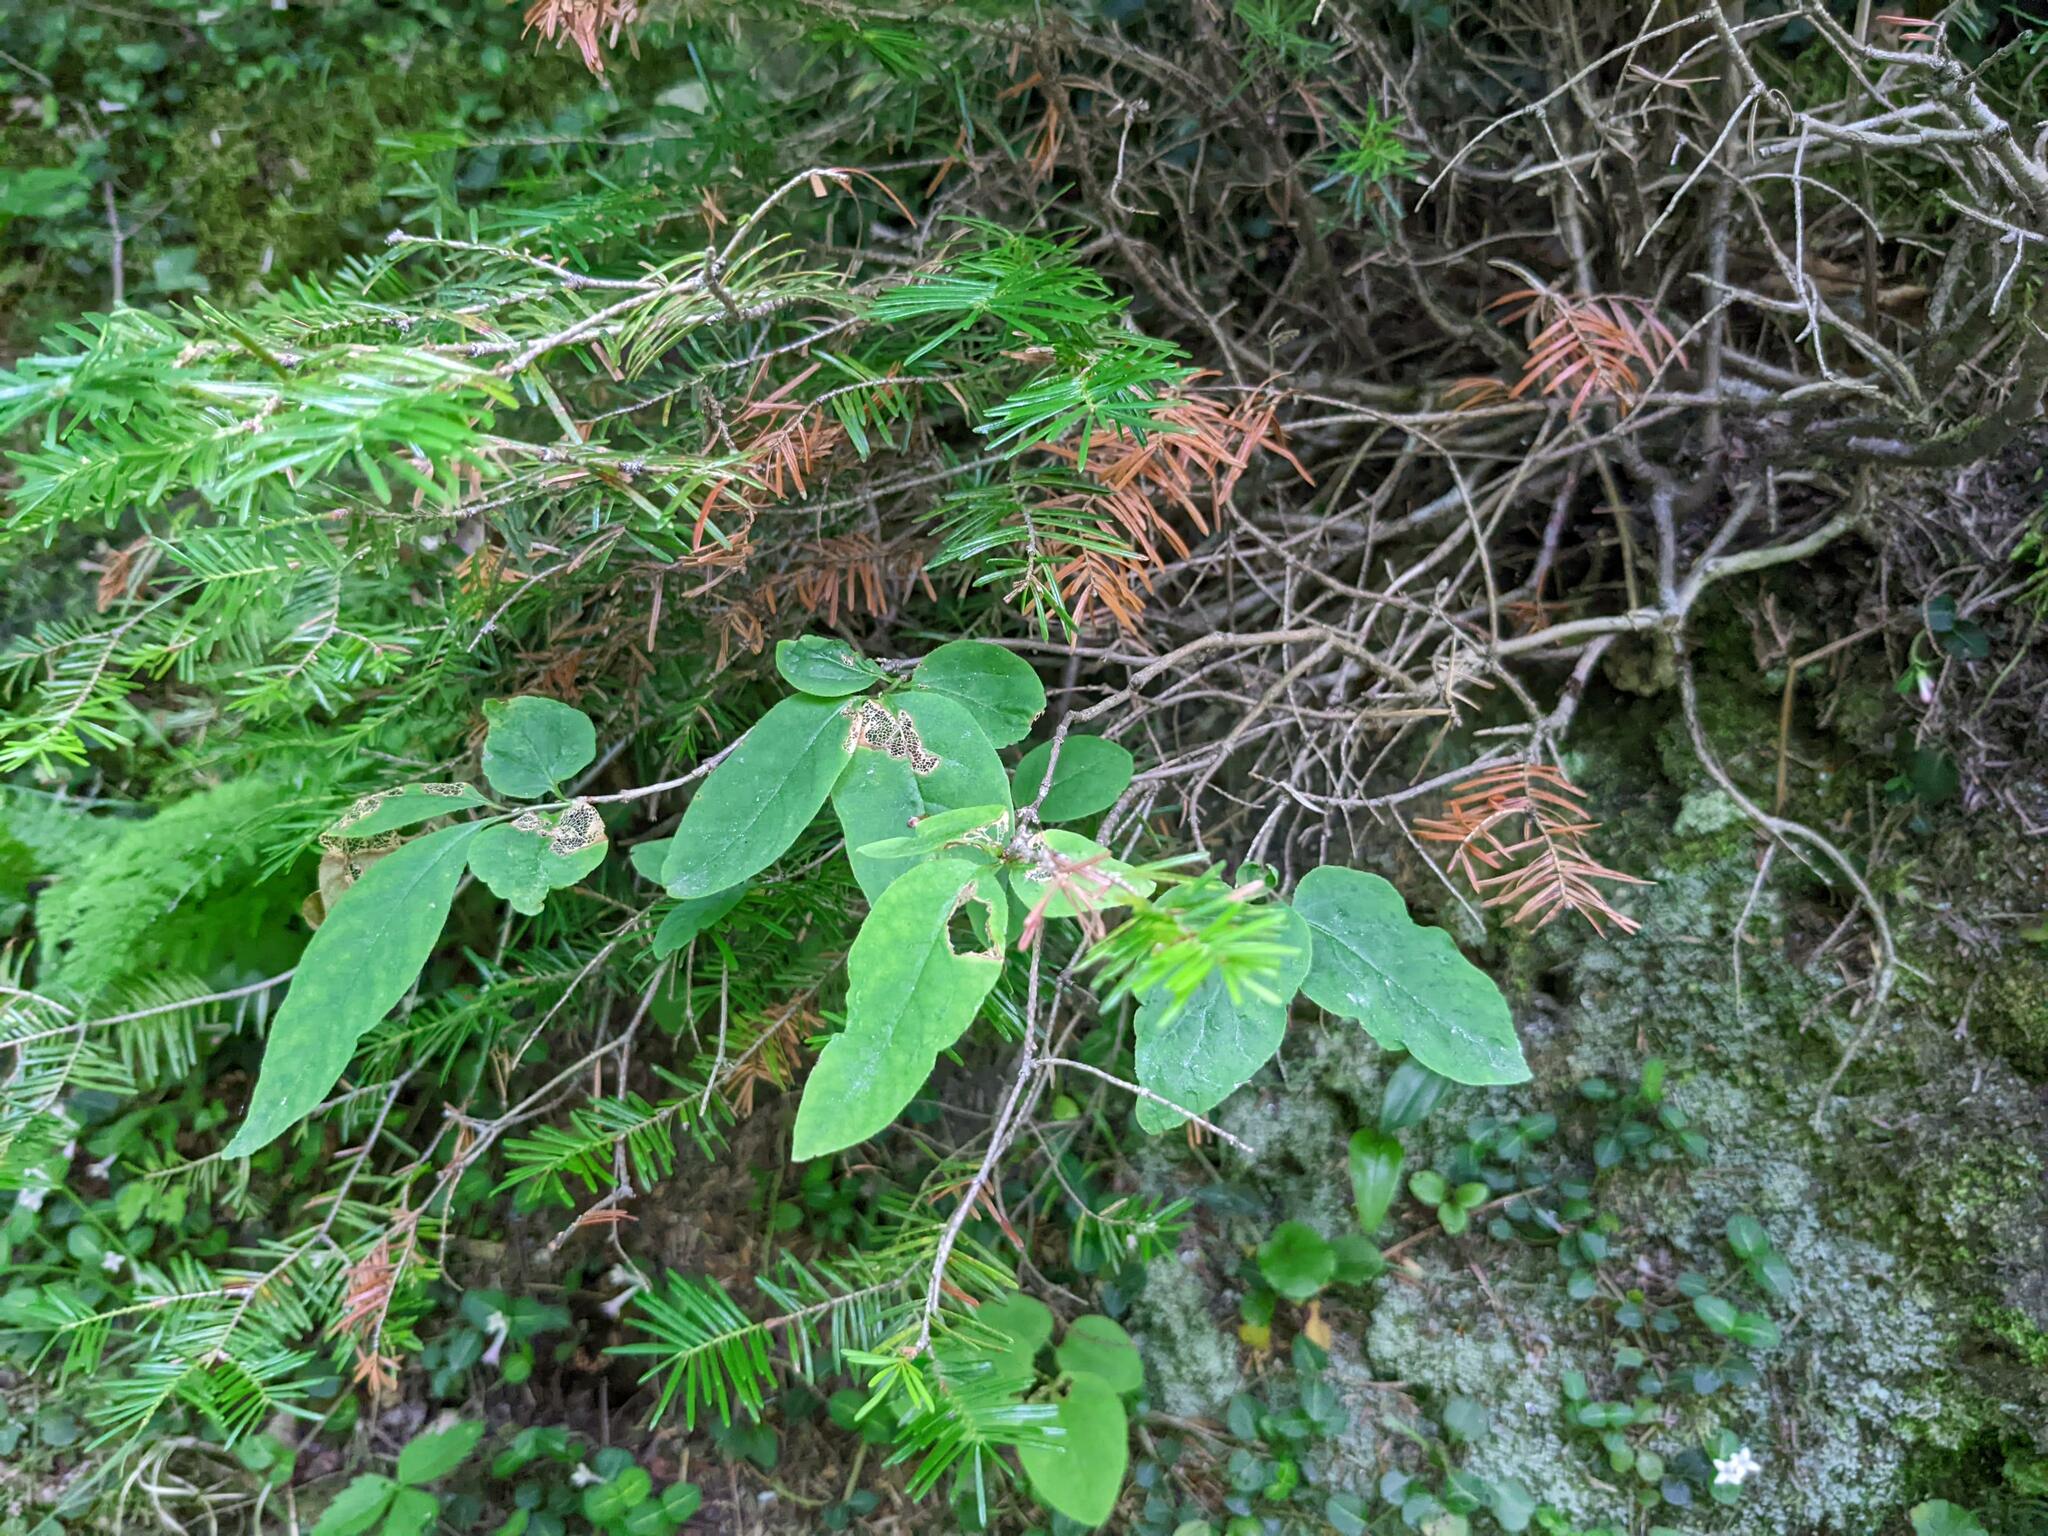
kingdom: Plantae
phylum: Tracheophyta
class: Magnoliopsida
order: Dipsacales
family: Caprifoliaceae
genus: Lonicera
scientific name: Lonicera canadensis
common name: American fly-honeysuckle
